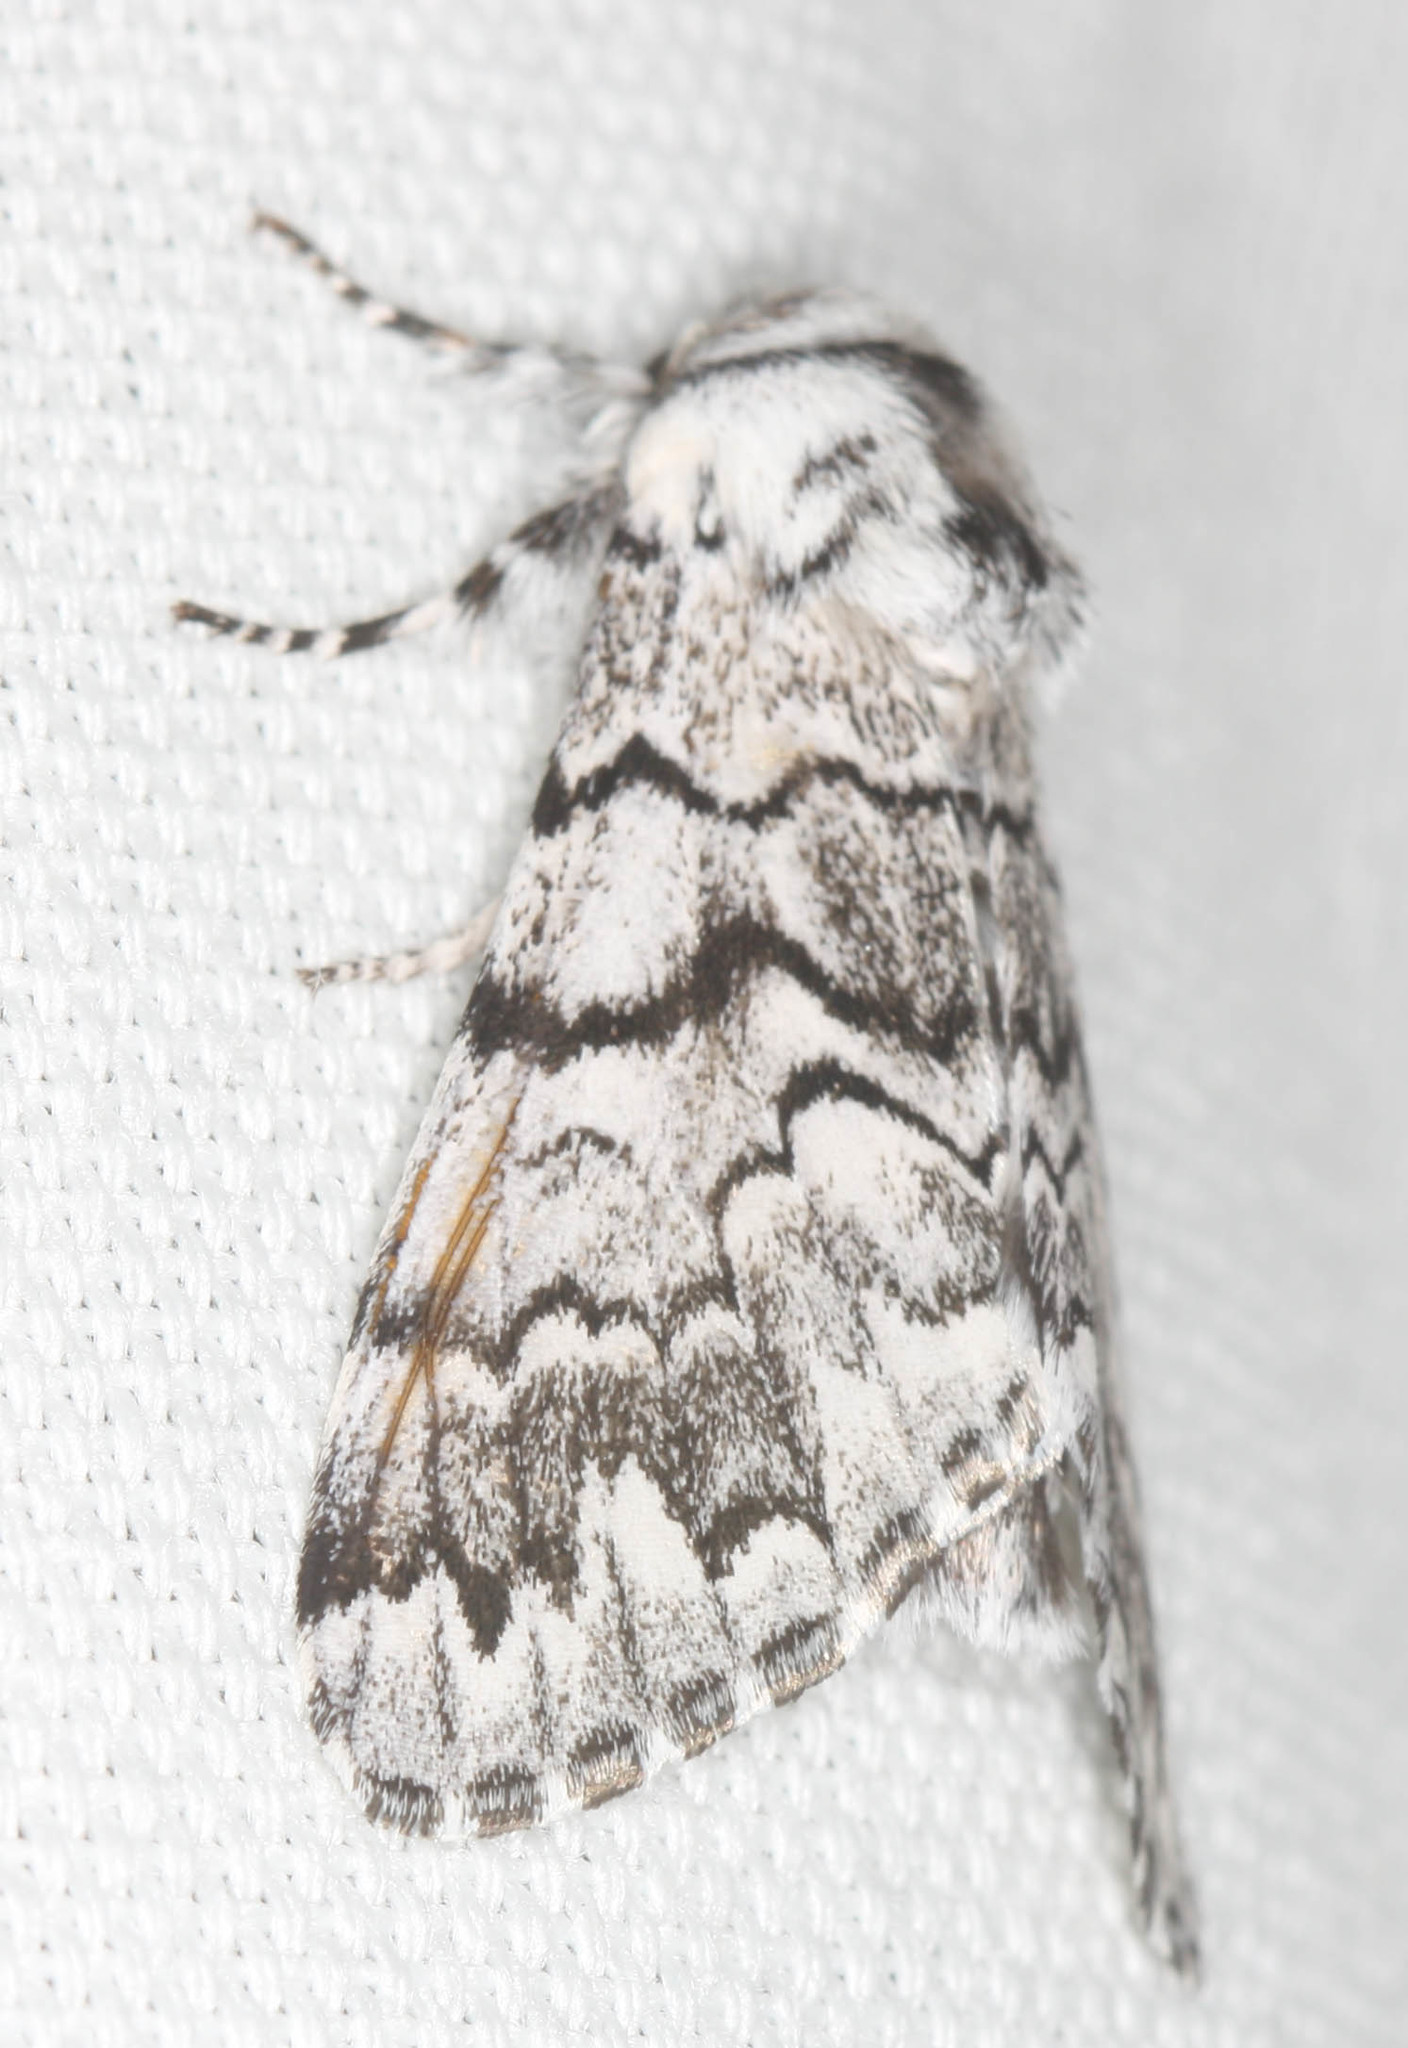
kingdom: Animalia
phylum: Arthropoda
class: Insecta
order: Lepidoptera
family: Noctuidae
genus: Panthea
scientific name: Panthea virginarius
